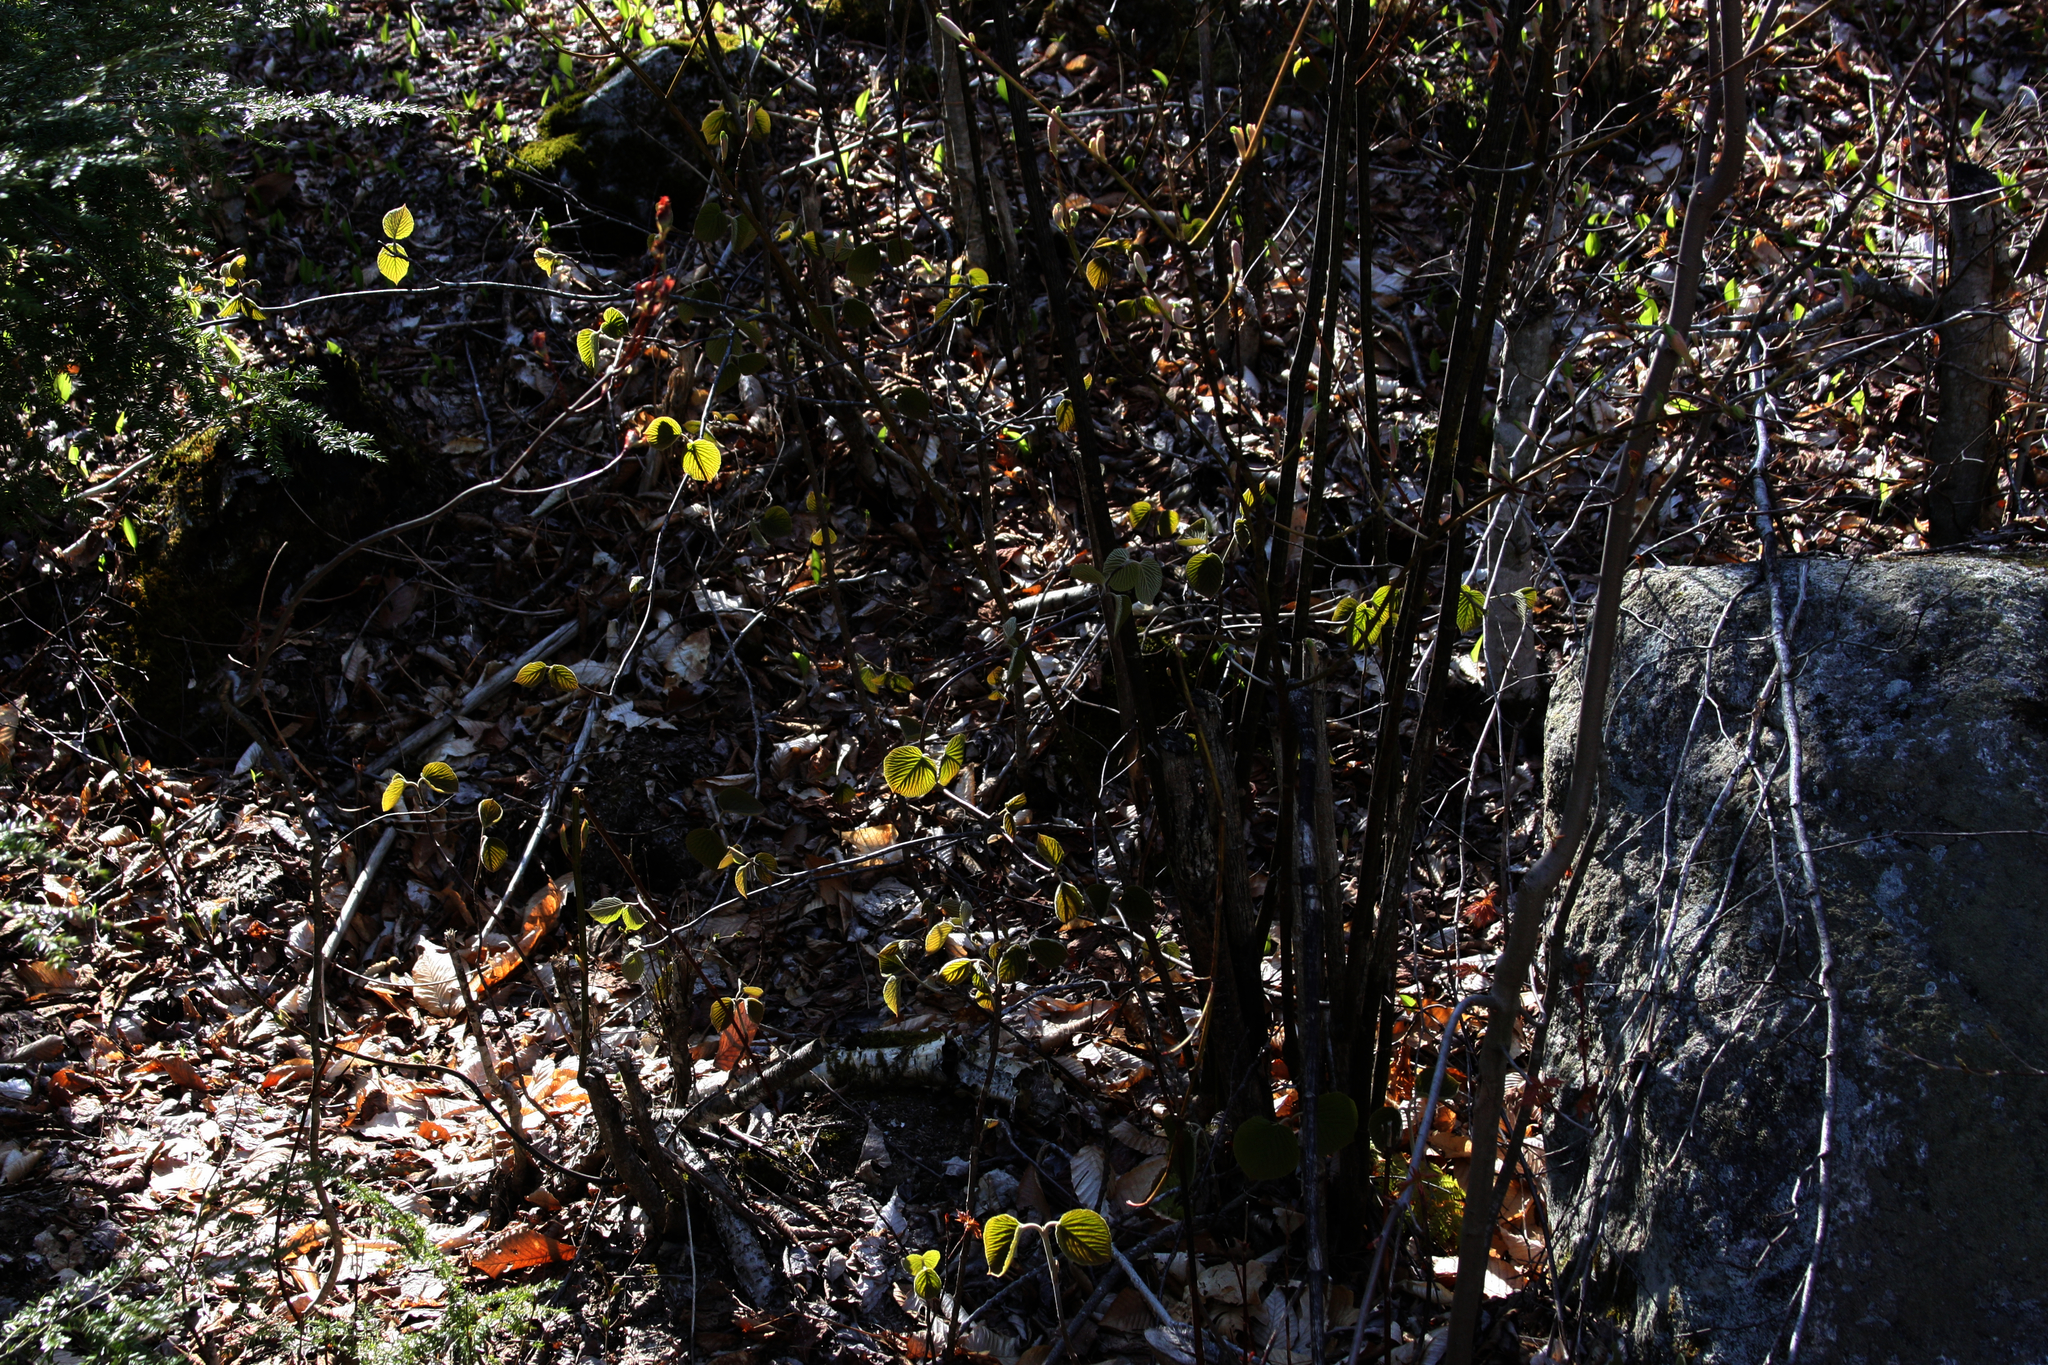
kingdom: Plantae
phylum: Tracheophyta
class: Magnoliopsida
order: Dipsacales
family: Viburnaceae
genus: Viburnum
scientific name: Viburnum lantanoides
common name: Hobblebush
